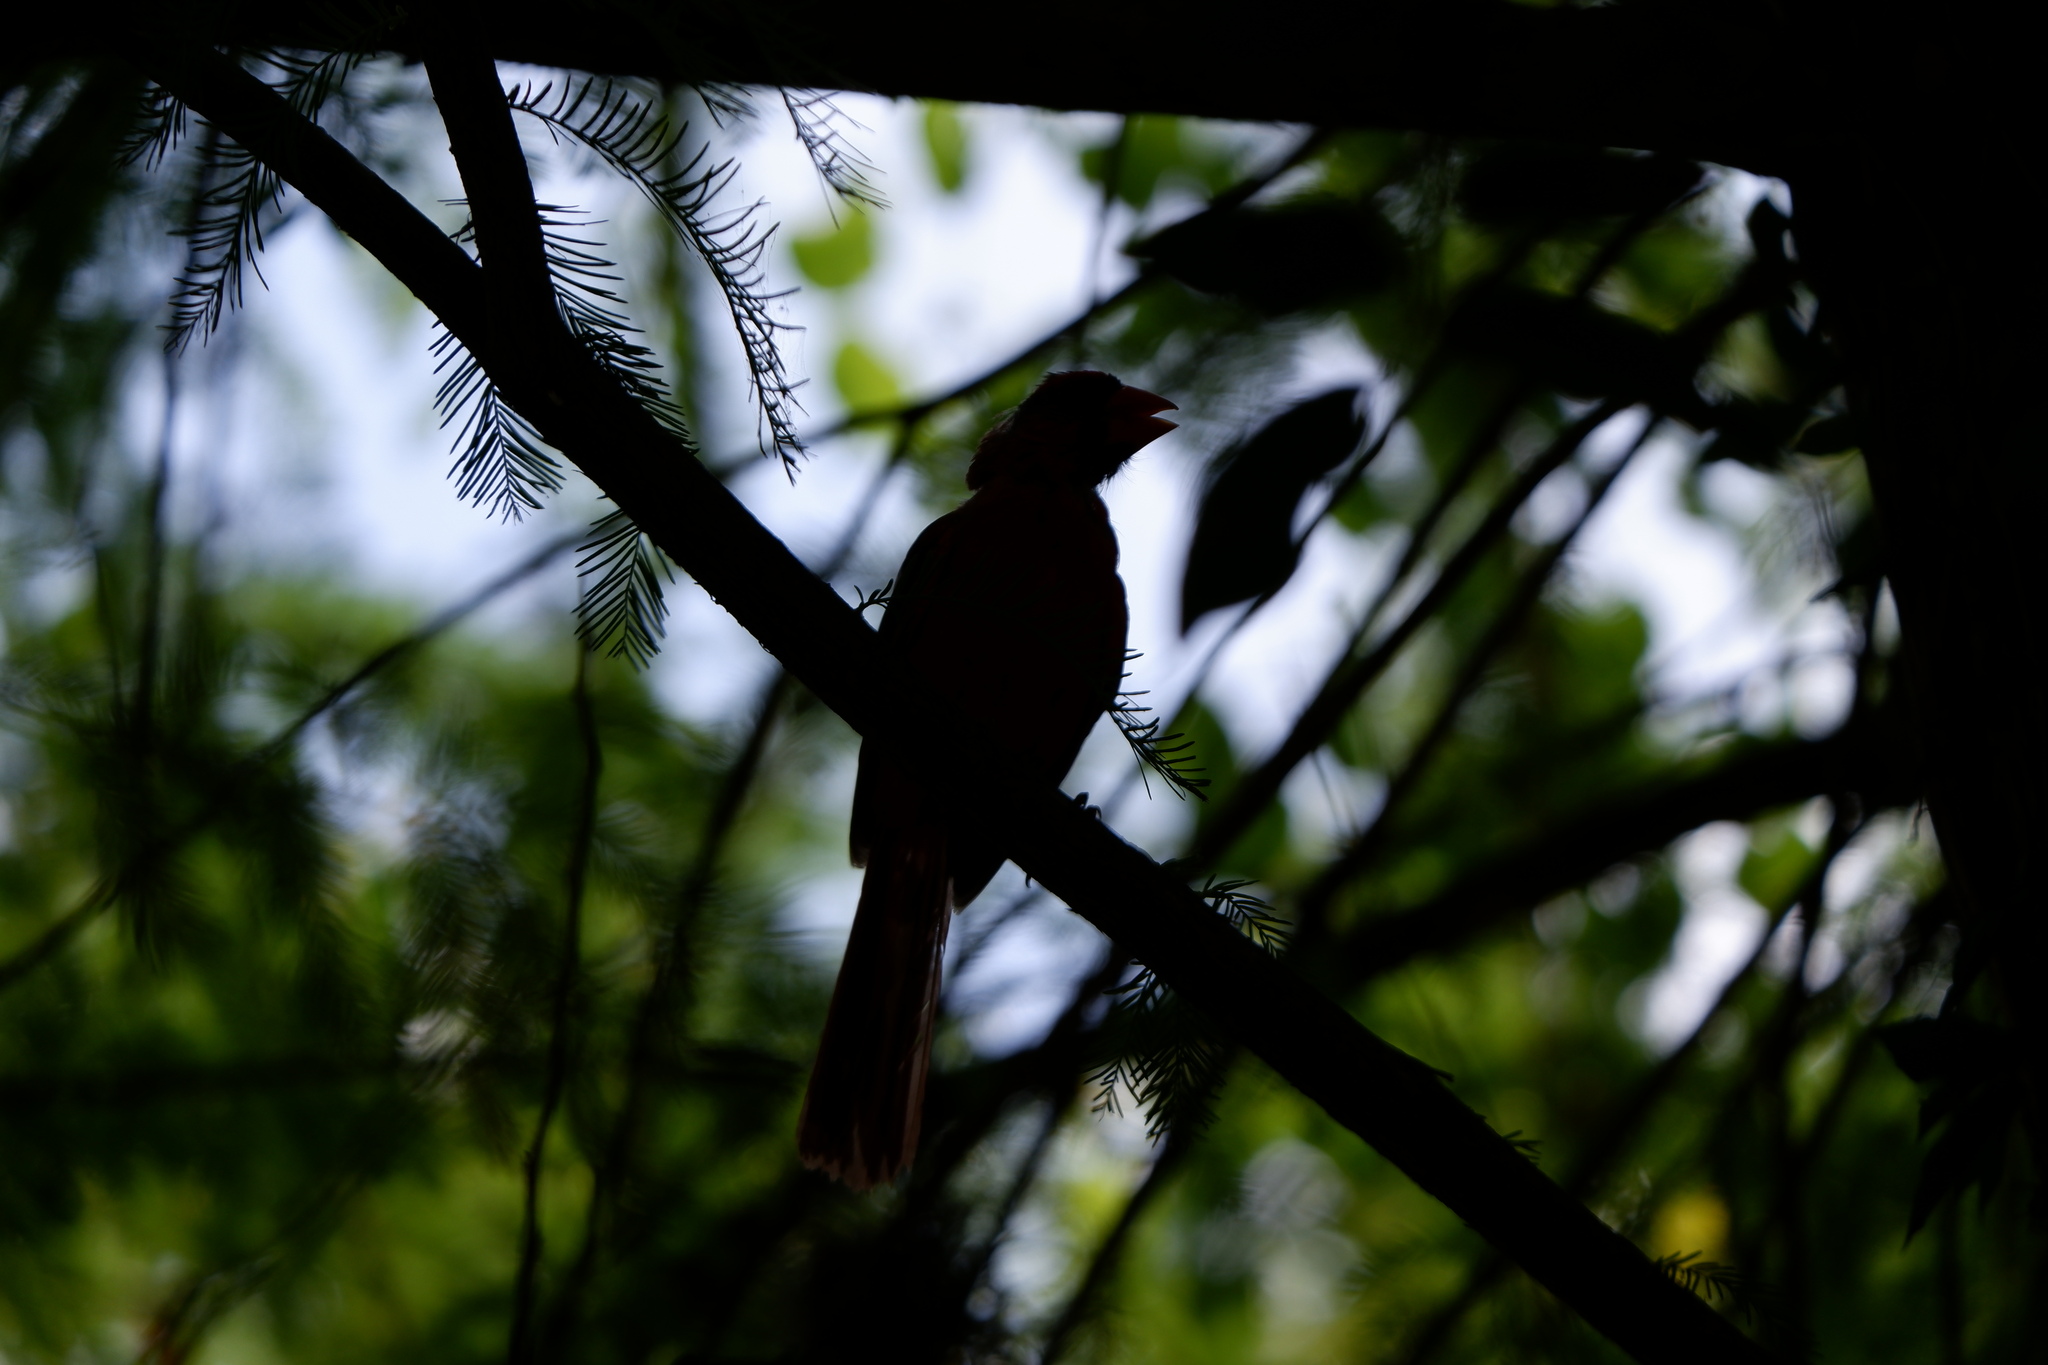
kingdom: Animalia
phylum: Chordata
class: Aves
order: Passeriformes
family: Cardinalidae
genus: Cardinalis
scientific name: Cardinalis cardinalis
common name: Northern cardinal
